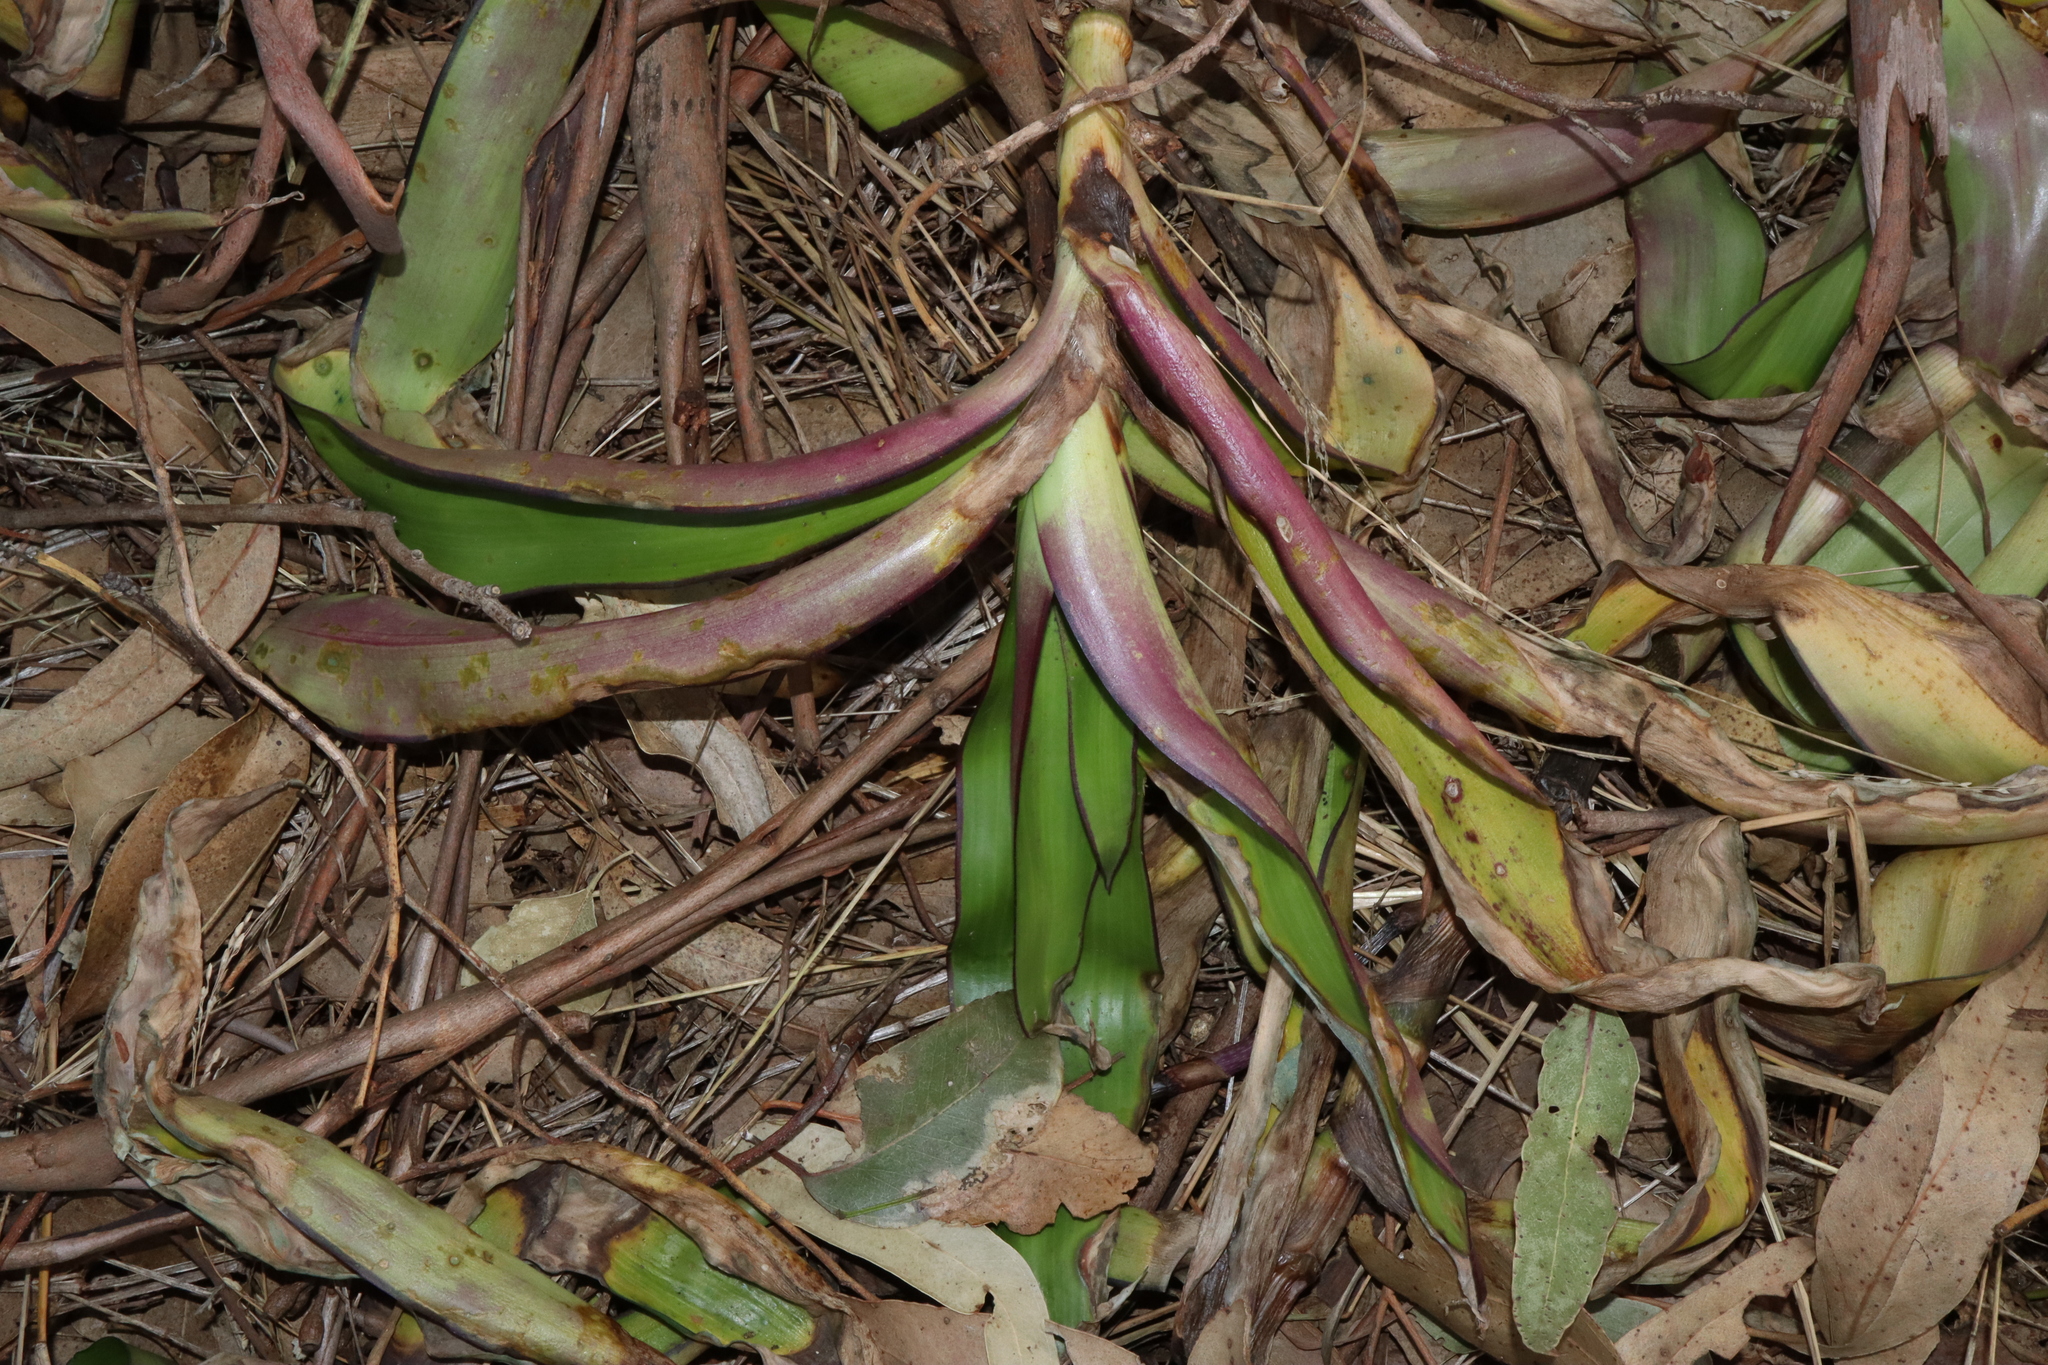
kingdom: Plantae
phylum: Tracheophyta
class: Liliopsida
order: Commelinales
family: Commelinaceae
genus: Callisia
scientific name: Callisia fragrans
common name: Basketplant
